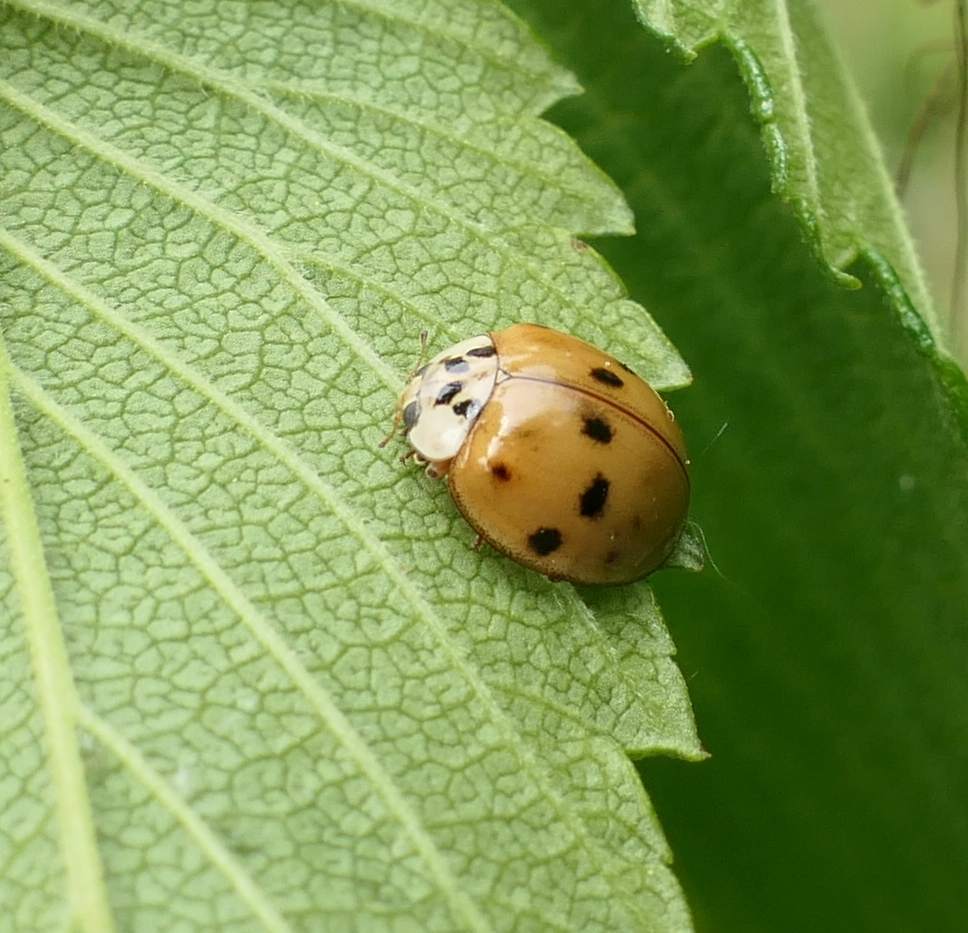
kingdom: Animalia
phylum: Arthropoda
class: Insecta
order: Coleoptera
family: Coccinellidae
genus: Harmonia
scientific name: Harmonia axyridis
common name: Harlequin ladybird
